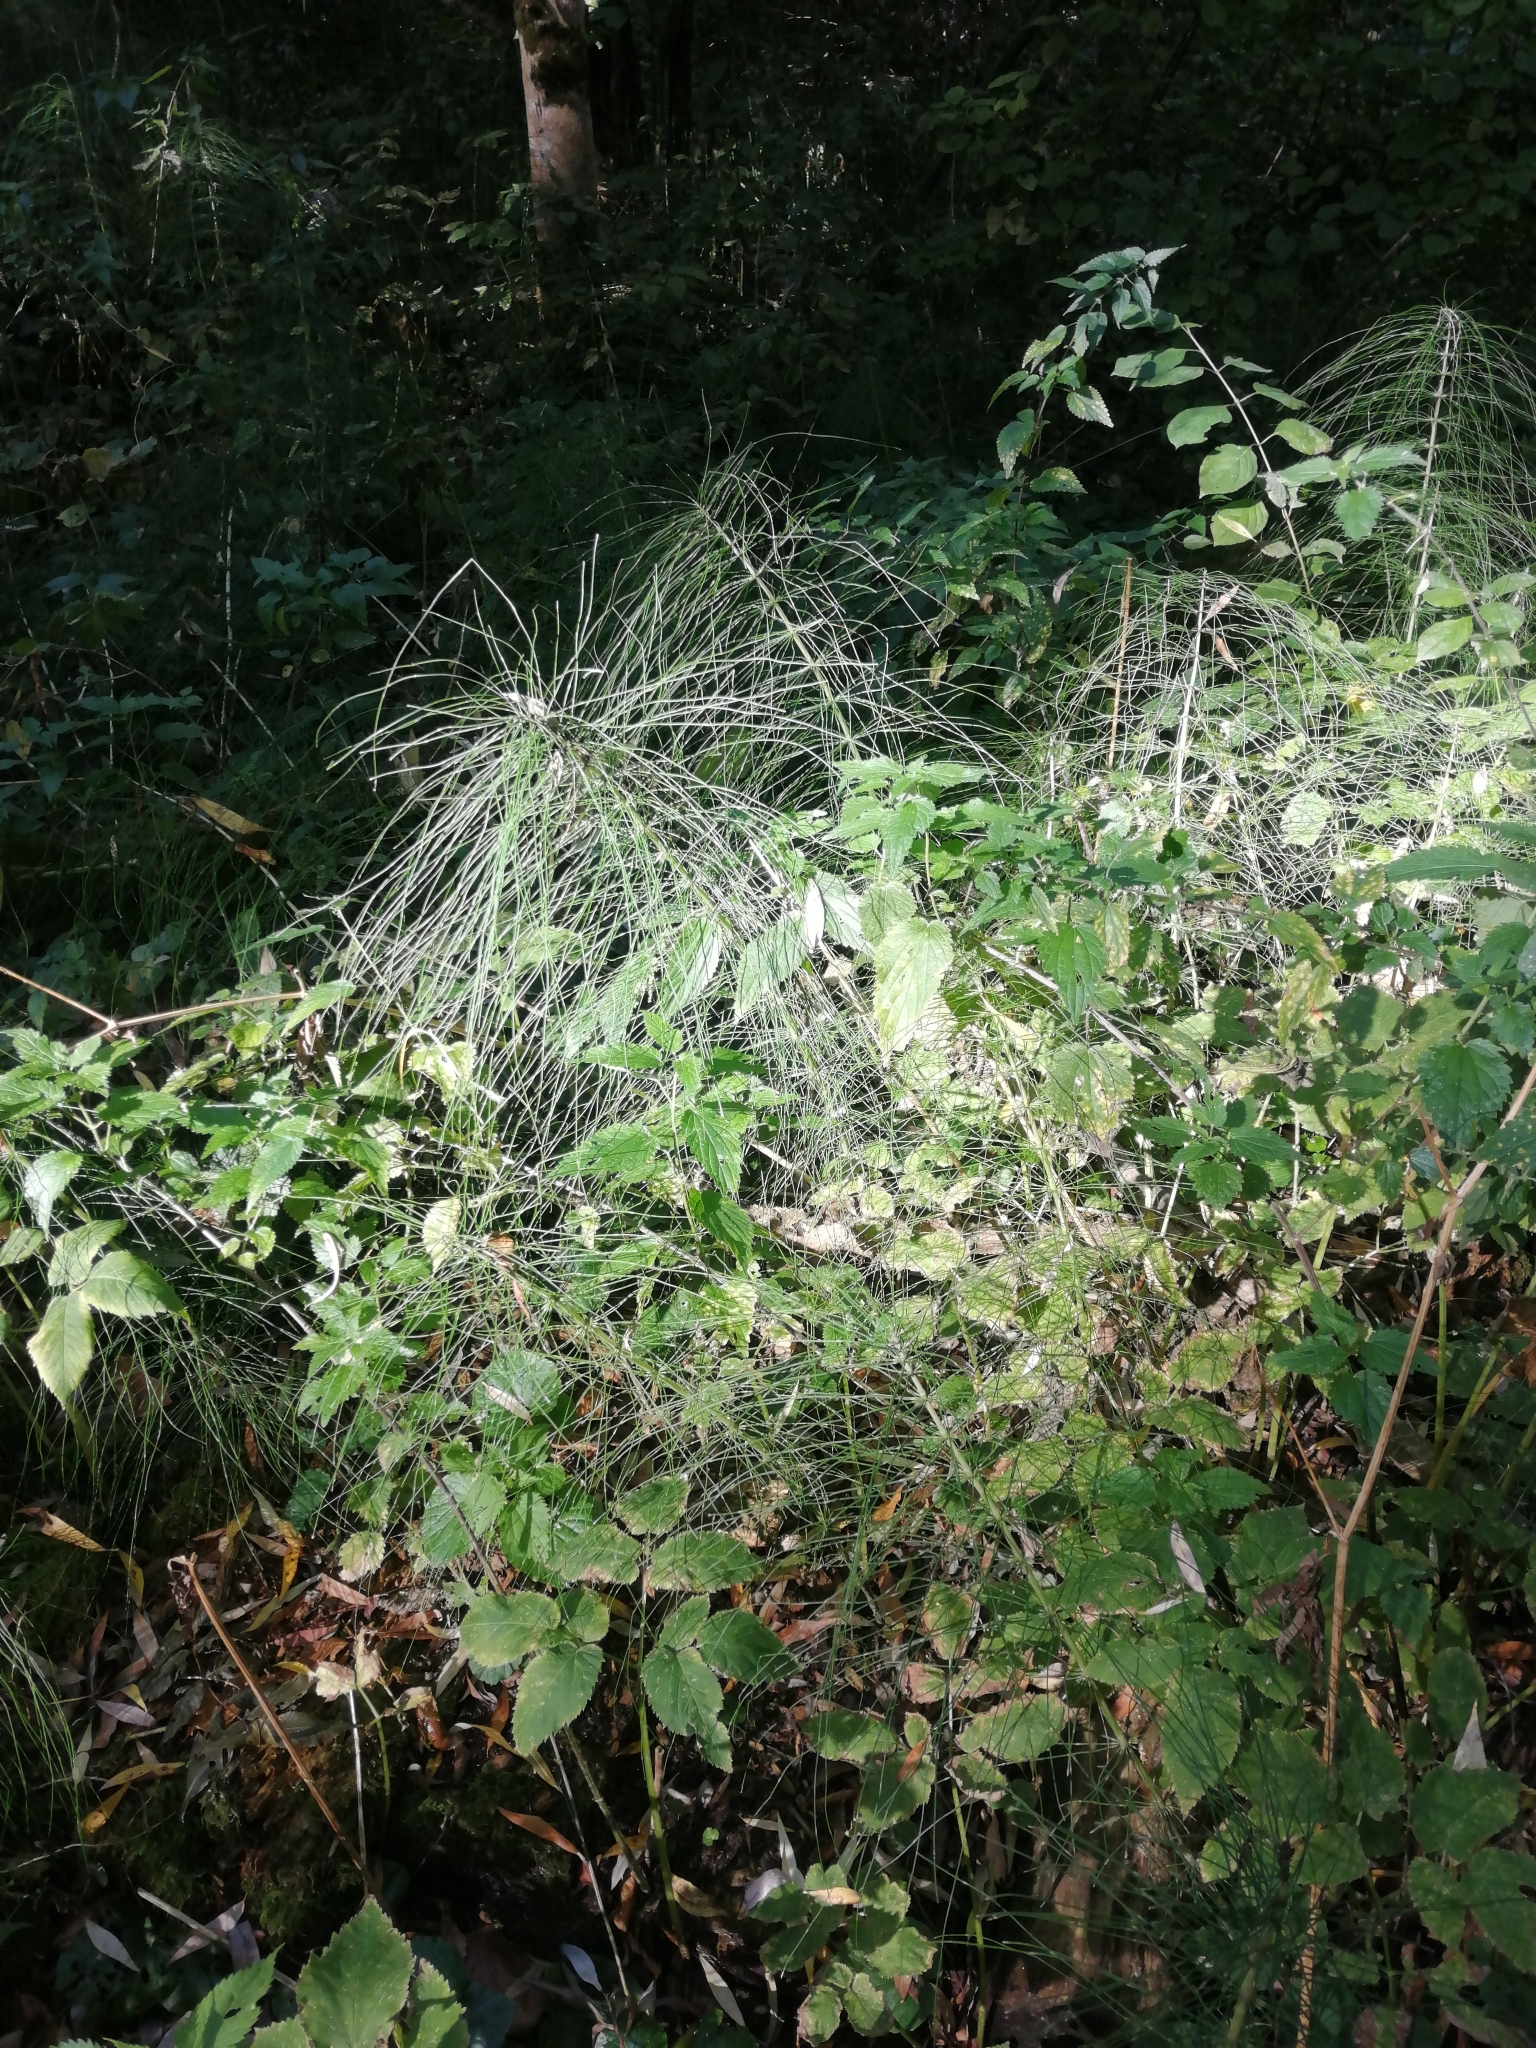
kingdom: Plantae
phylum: Tracheophyta
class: Polypodiopsida
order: Equisetales
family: Equisetaceae
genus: Equisetum
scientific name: Equisetum telmateia
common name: Great horsetail
